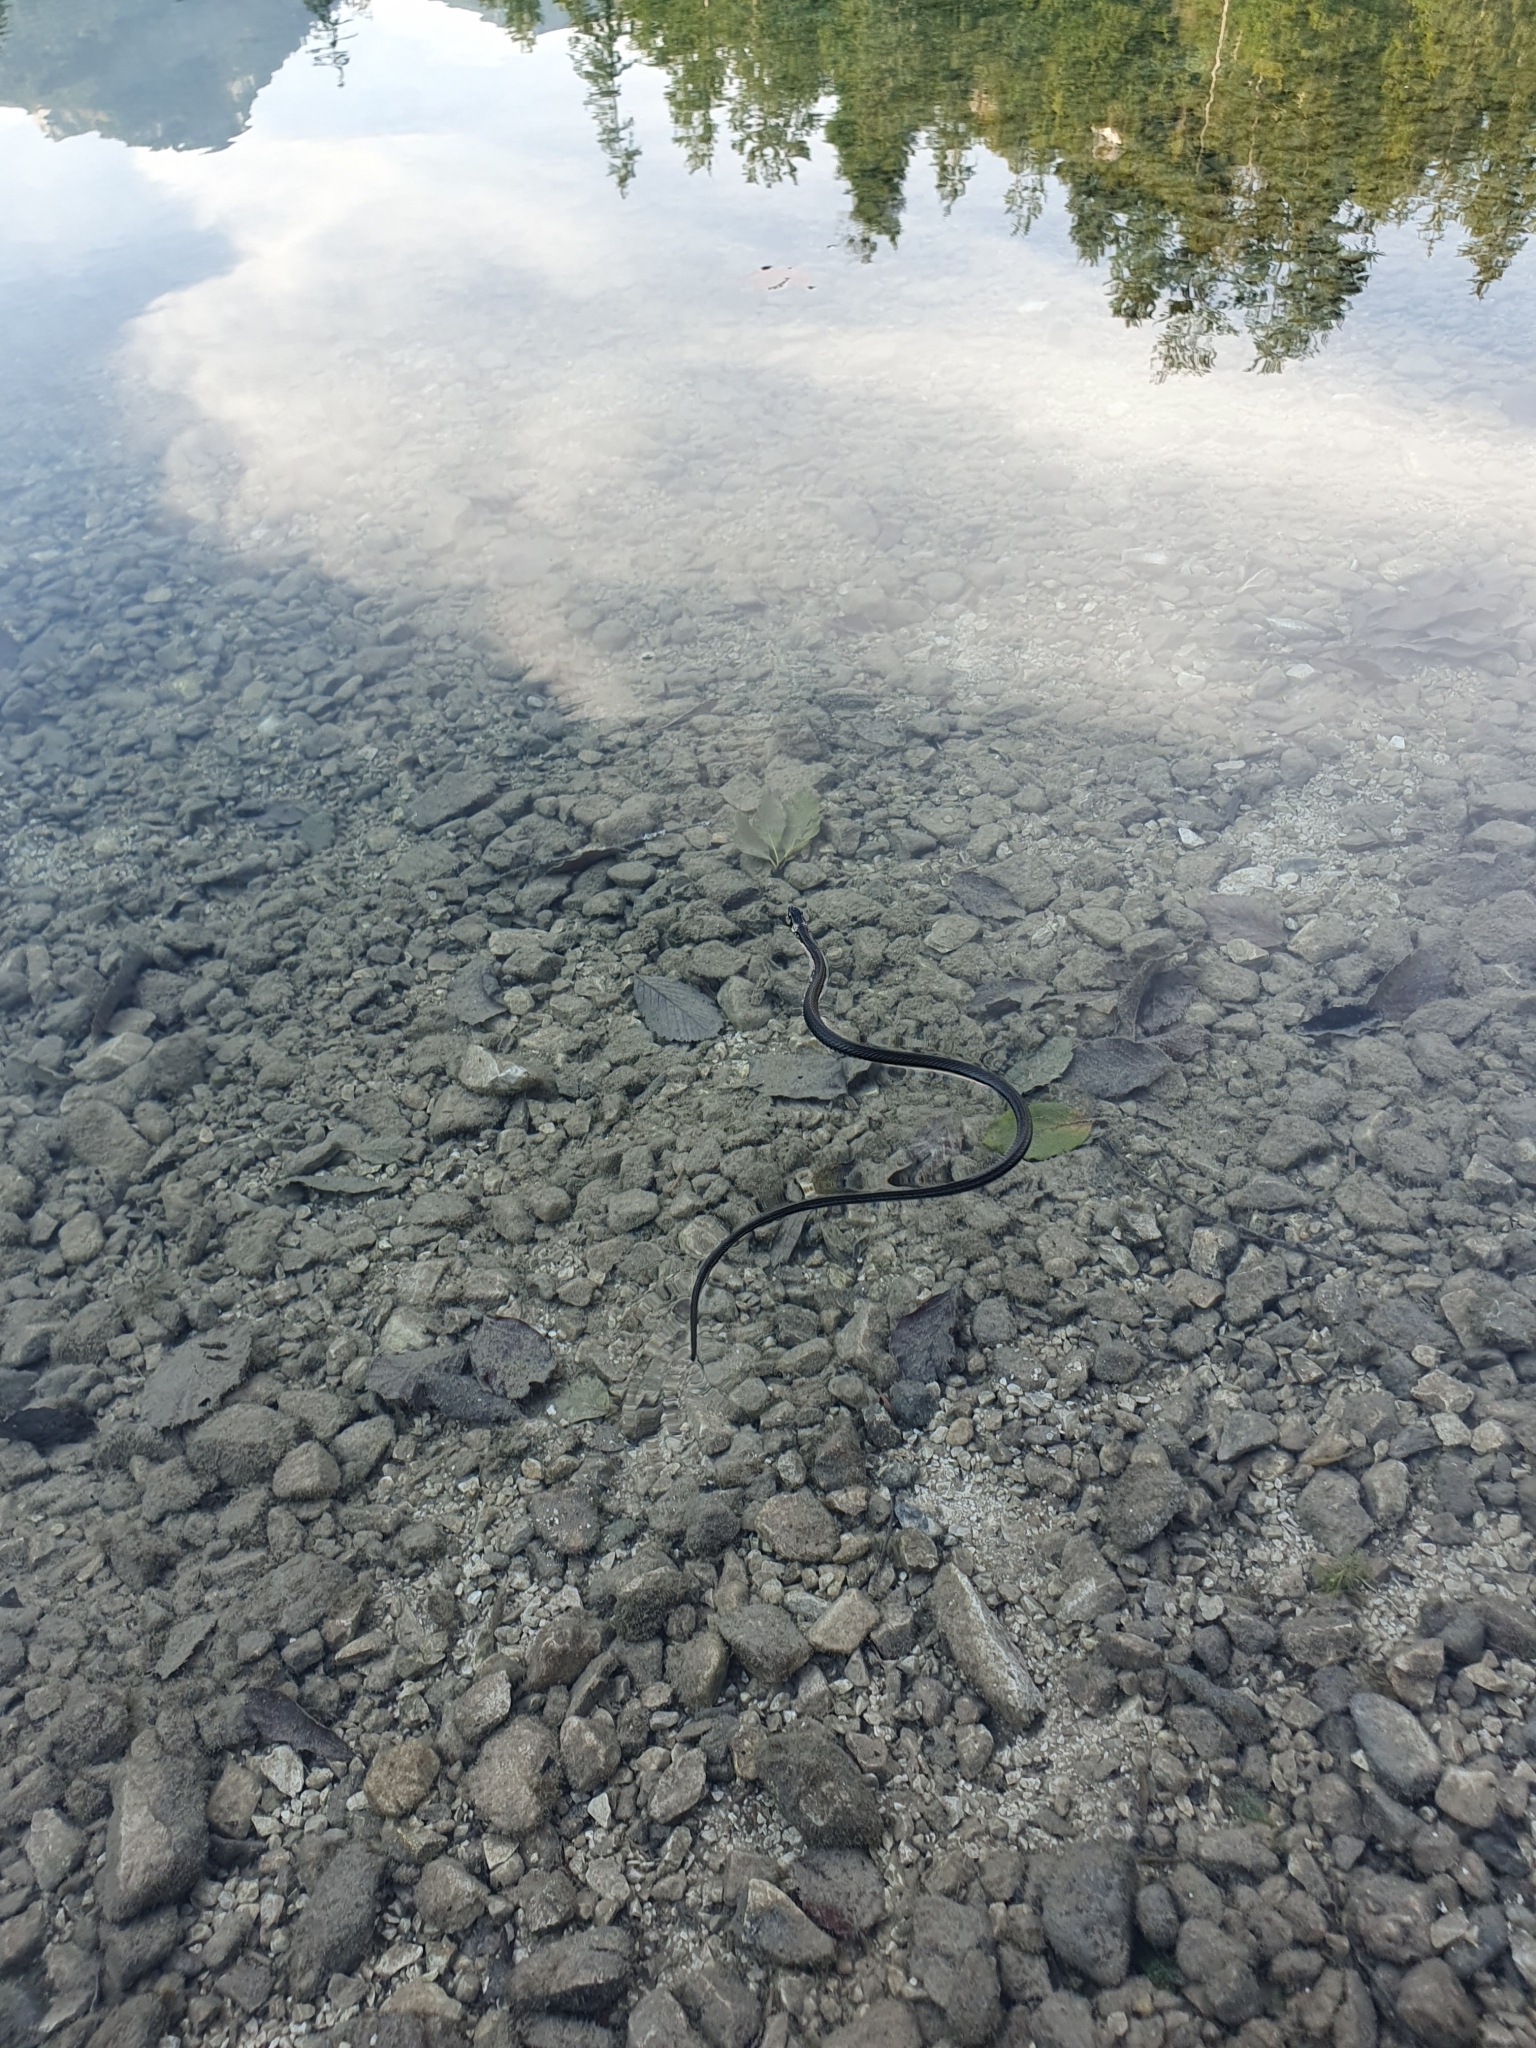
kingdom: Animalia
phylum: Chordata
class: Squamata
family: Colubridae
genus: Natrix
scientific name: Natrix natrix
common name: Grass snake
